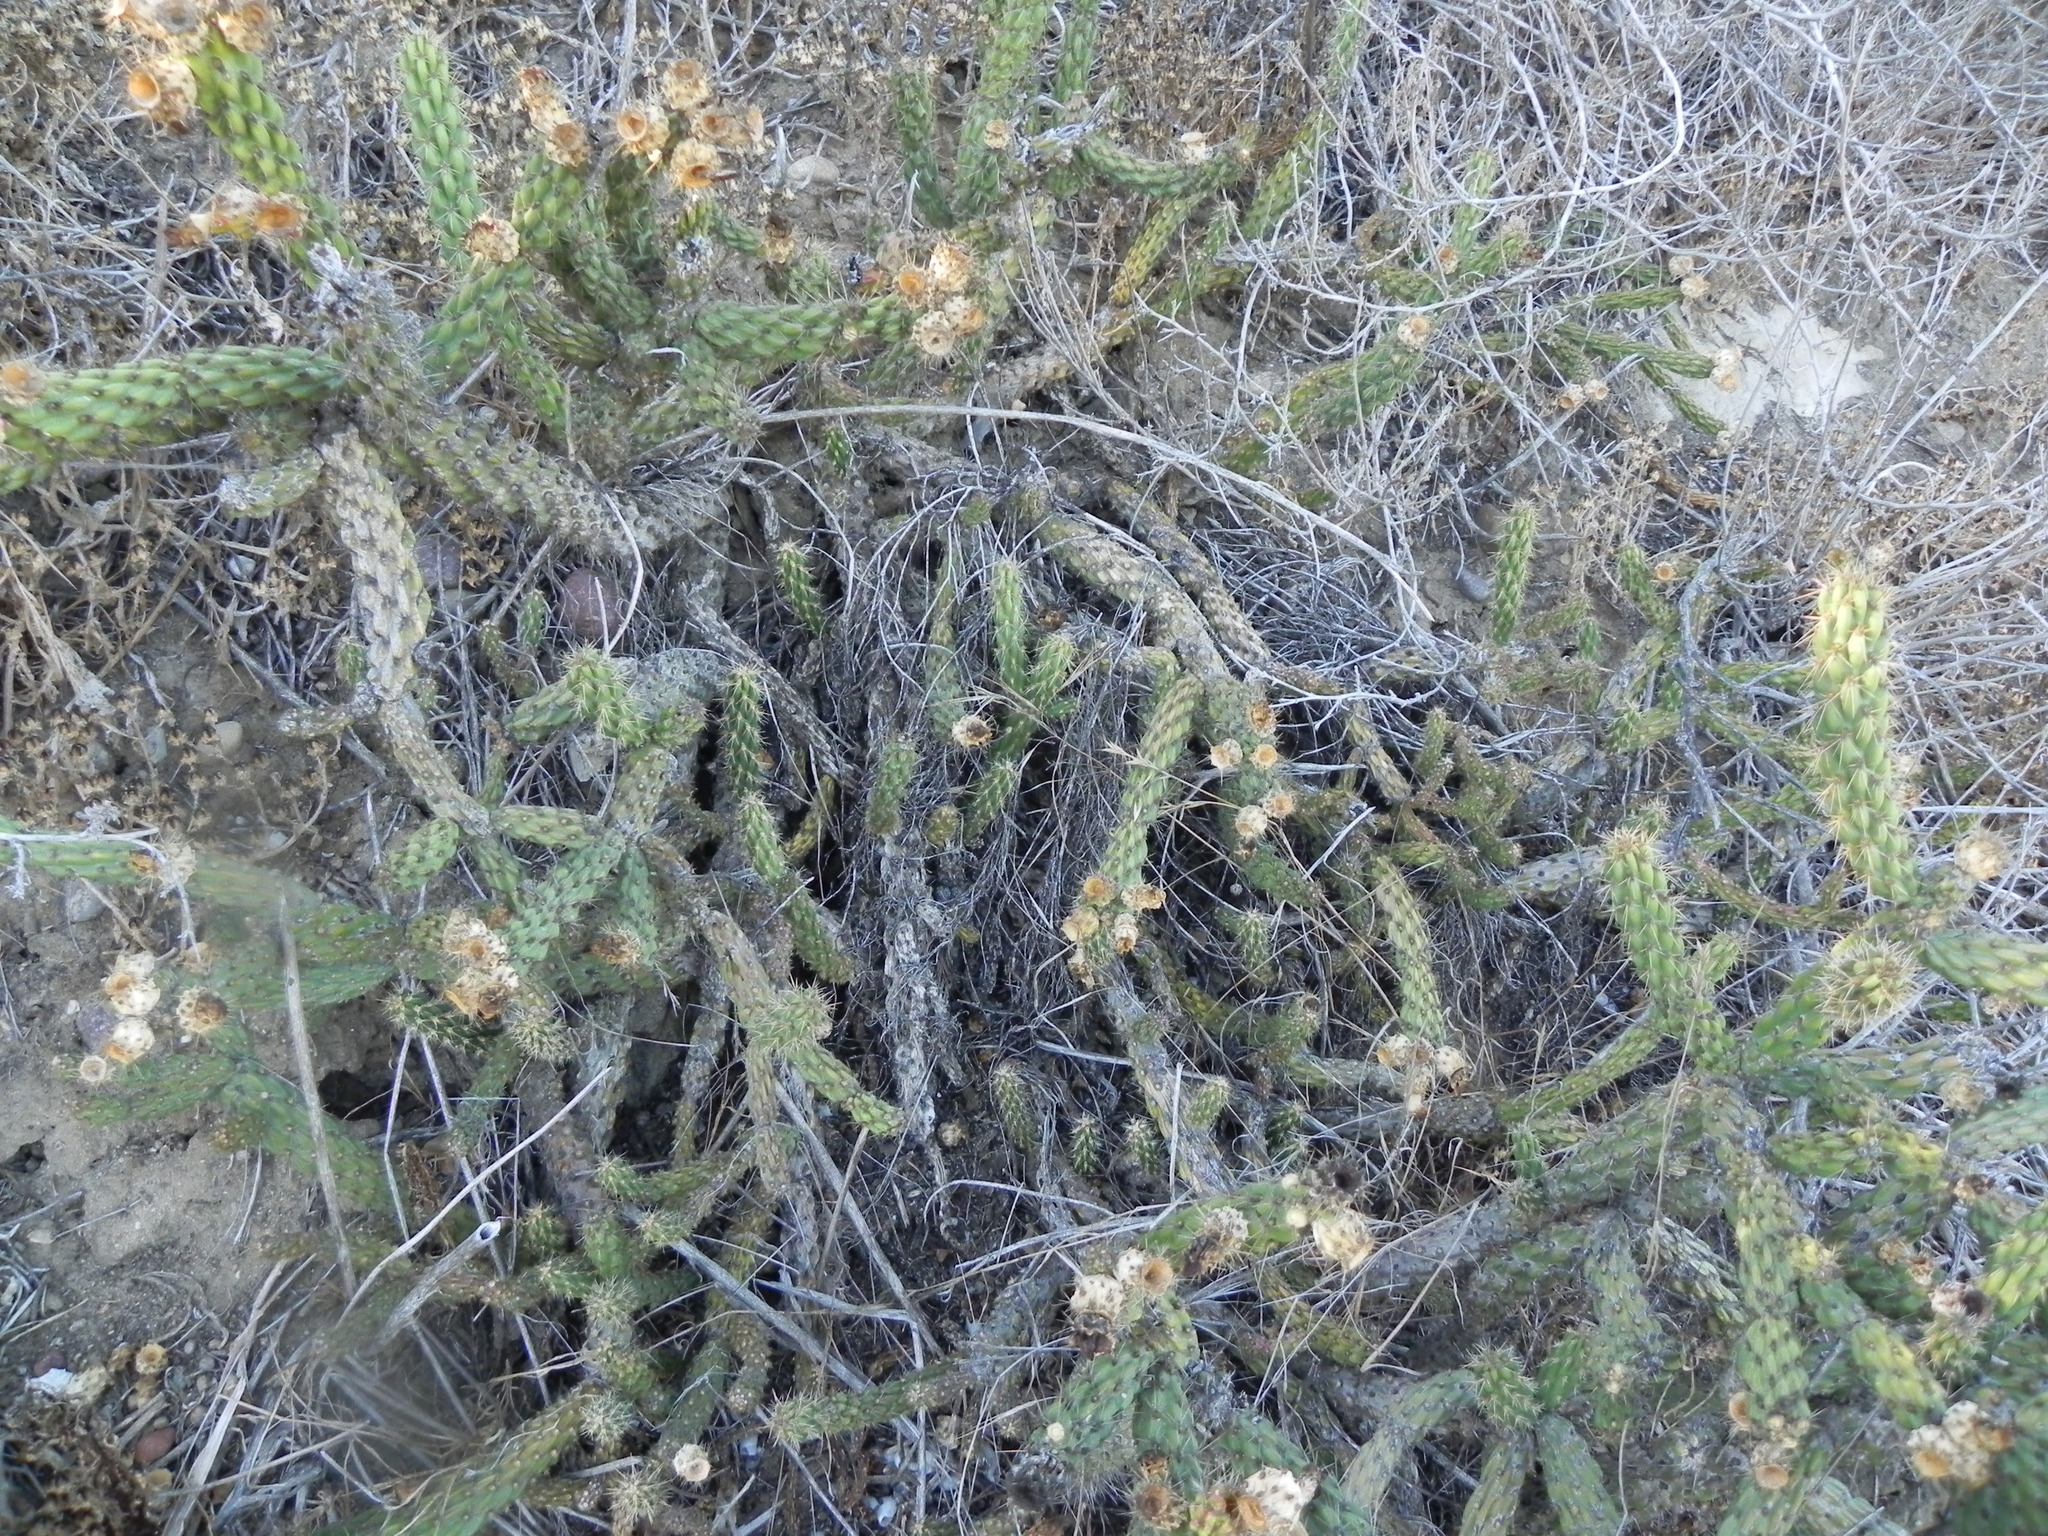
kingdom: Plantae
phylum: Tracheophyta
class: Magnoliopsida
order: Caryophyllales
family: Cactaceae
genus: Cylindropuntia
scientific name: Cylindropuntia californica
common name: Snake cholla
